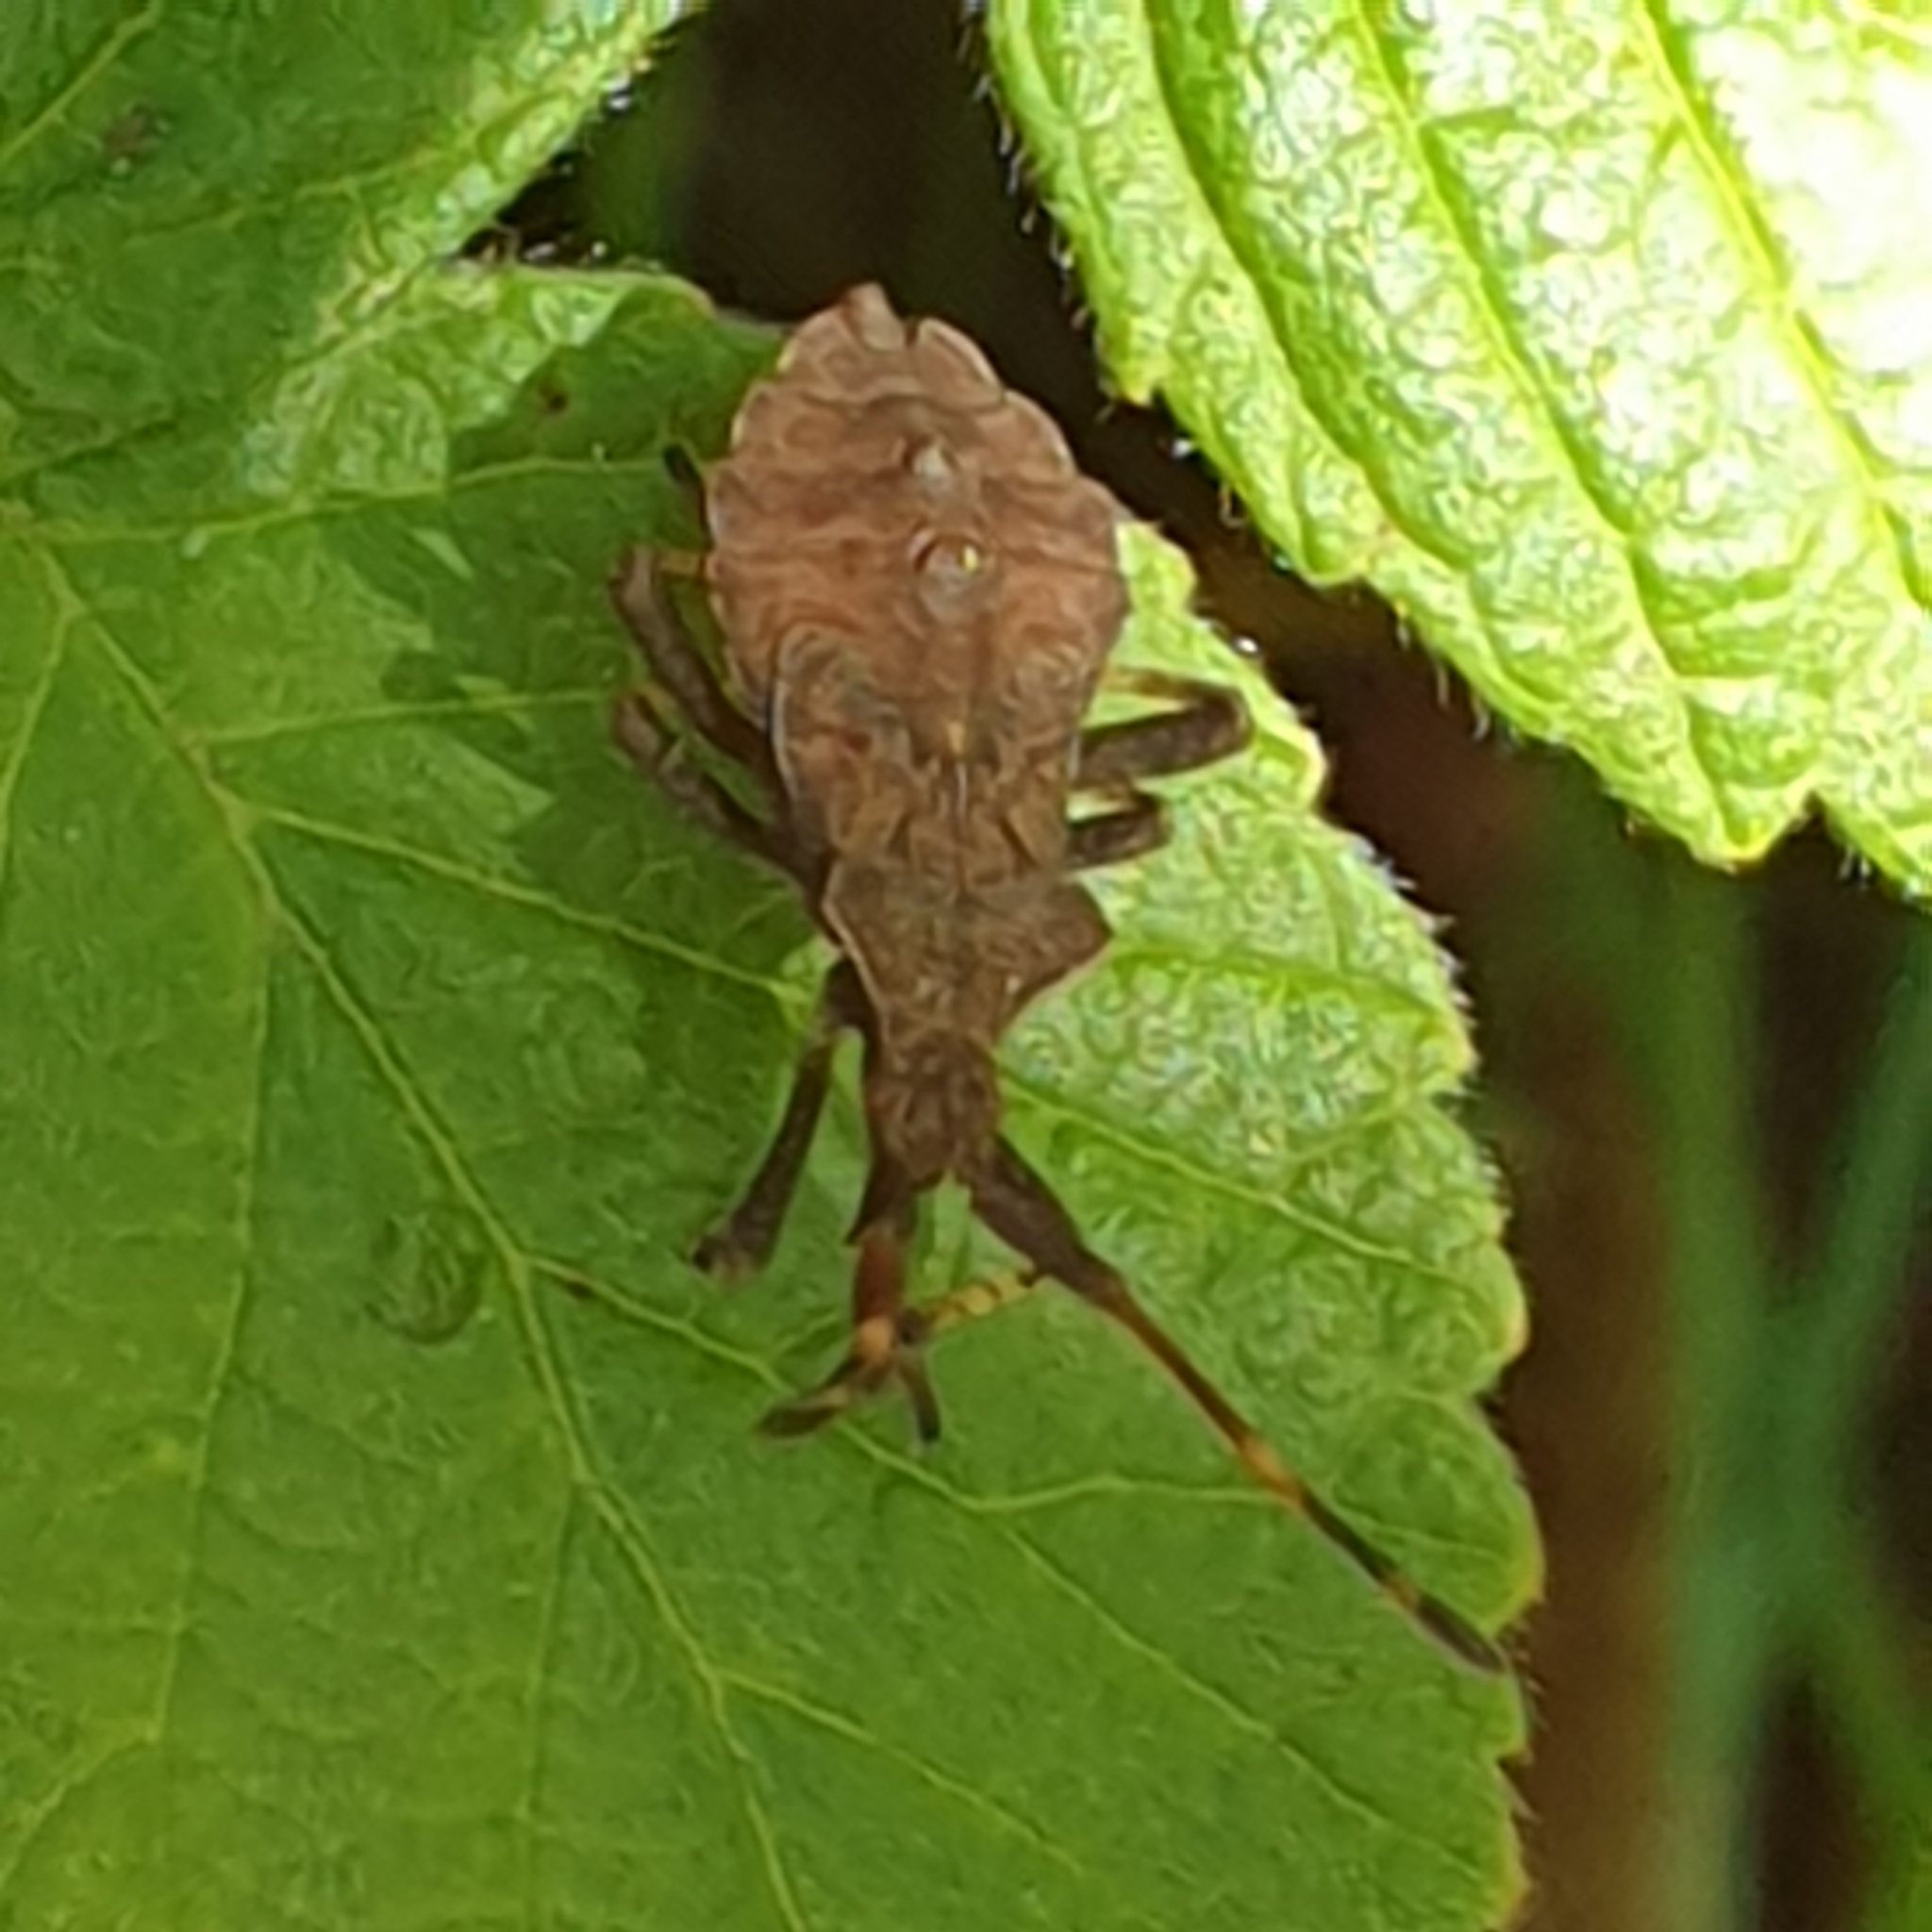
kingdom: Animalia
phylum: Arthropoda
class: Insecta
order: Hemiptera
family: Coreidae
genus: Coreus
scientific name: Coreus marginatus
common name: Dock bug
